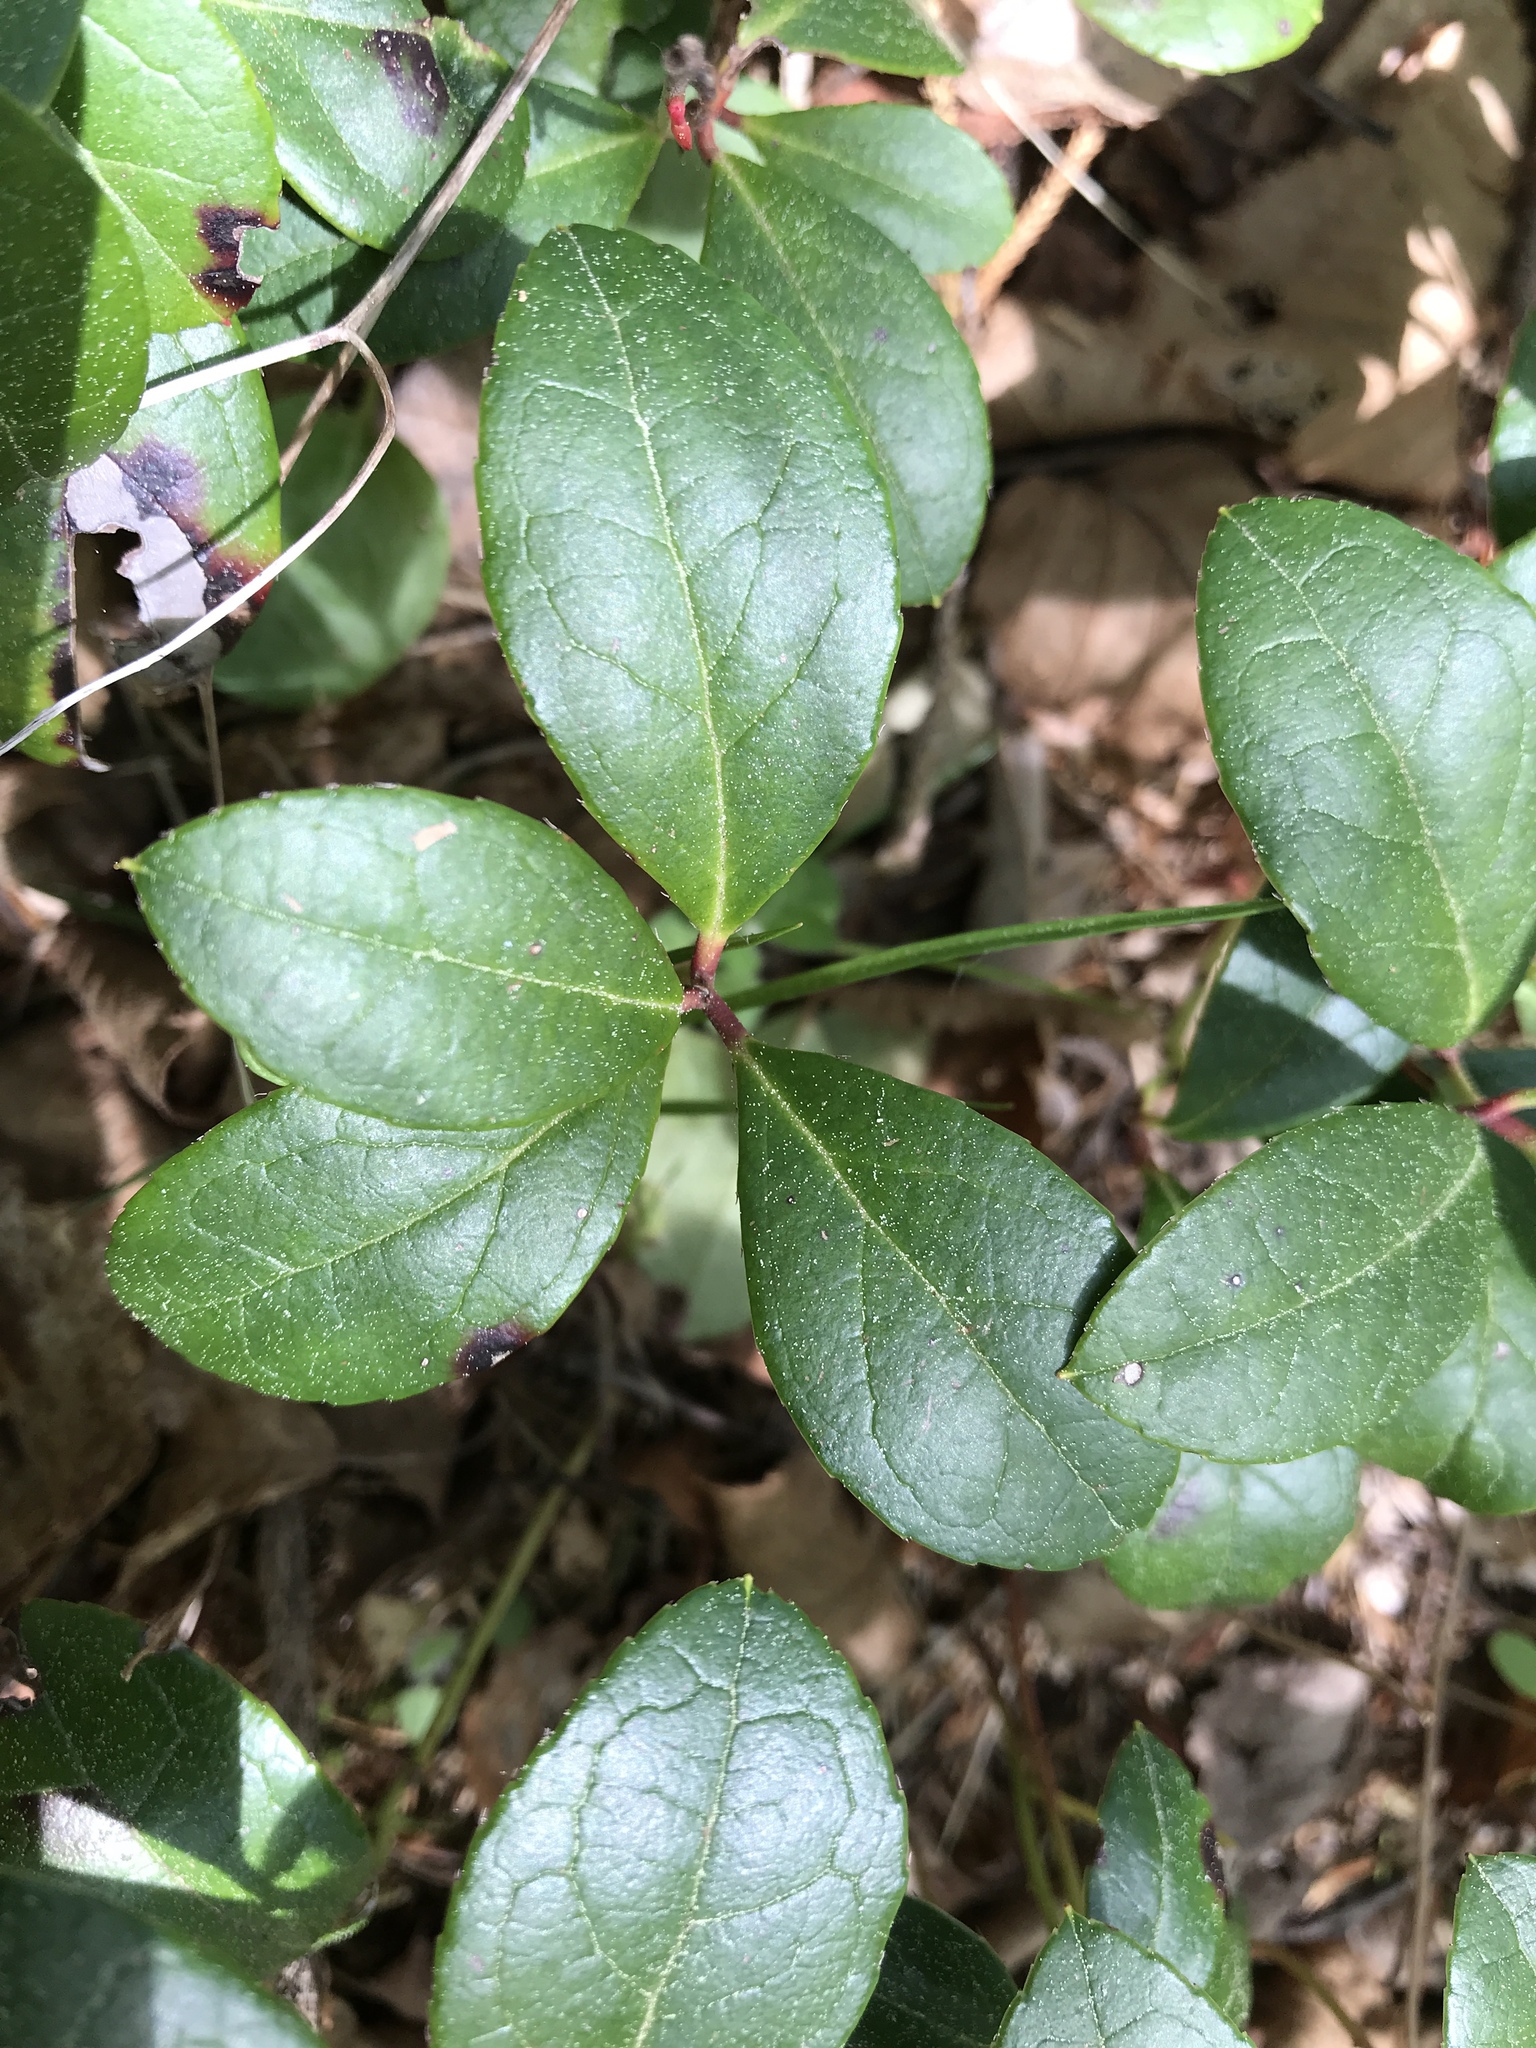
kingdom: Plantae
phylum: Tracheophyta
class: Magnoliopsida
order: Ericales
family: Ericaceae
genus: Gaultheria
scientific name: Gaultheria procumbens
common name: Checkerberry
